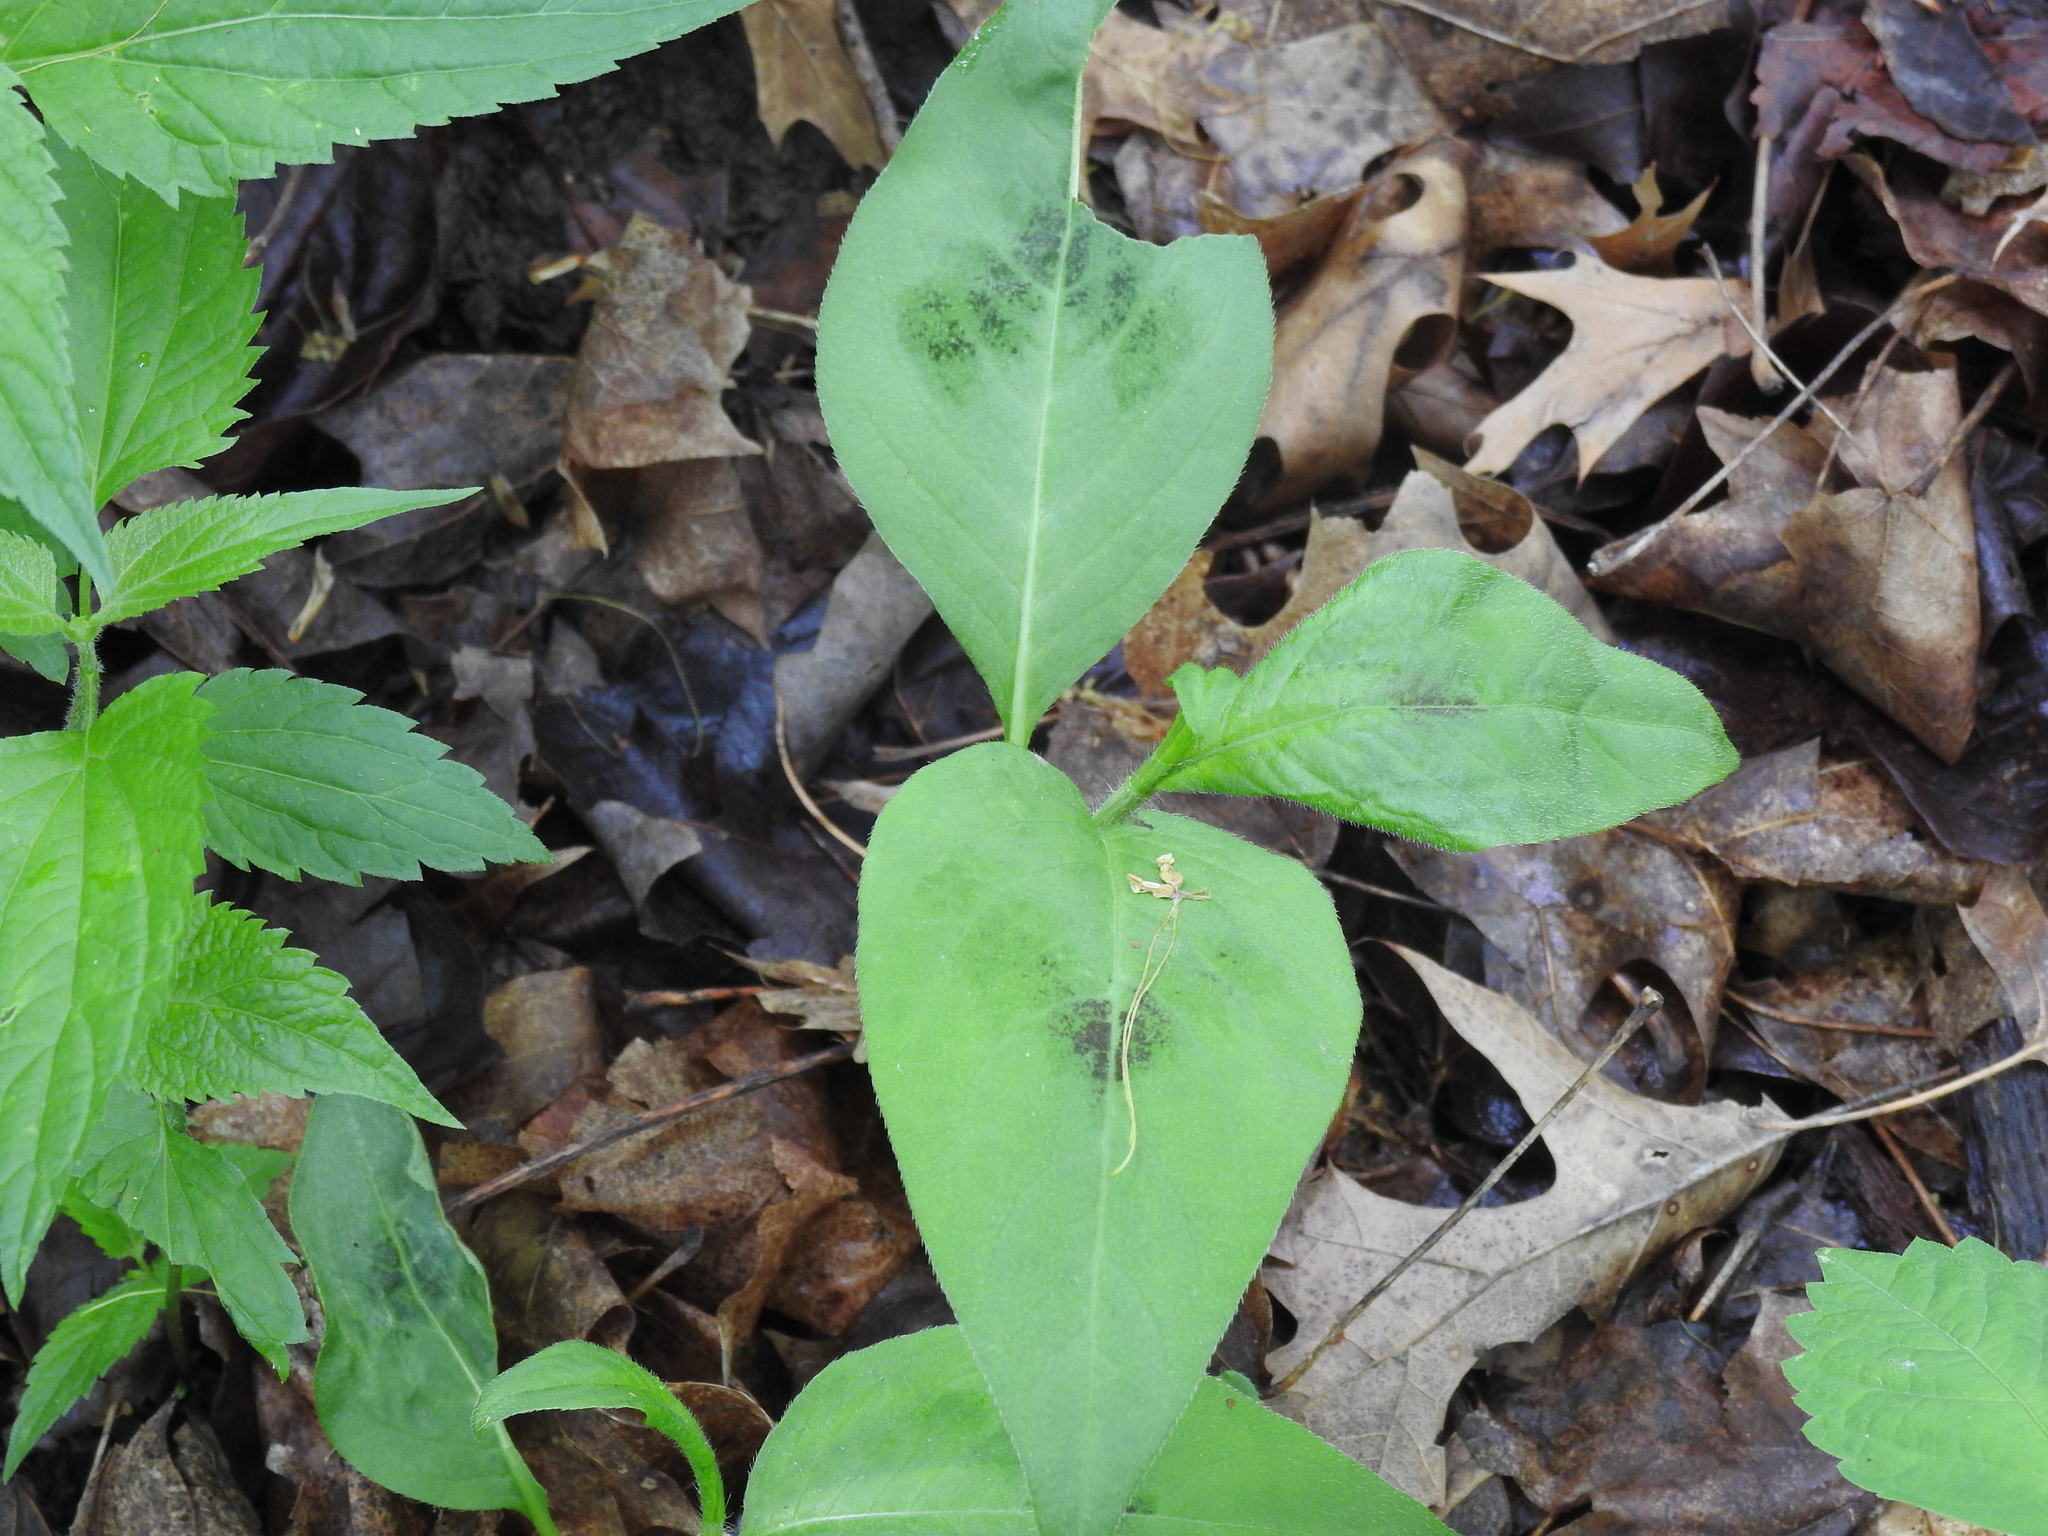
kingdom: Plantae
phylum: Tracheophyta
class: Magnoliopsida
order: Caryophyllales
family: Polygonaceae
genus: Persicaria
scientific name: Persicaria virginiana
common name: Jumpseed
